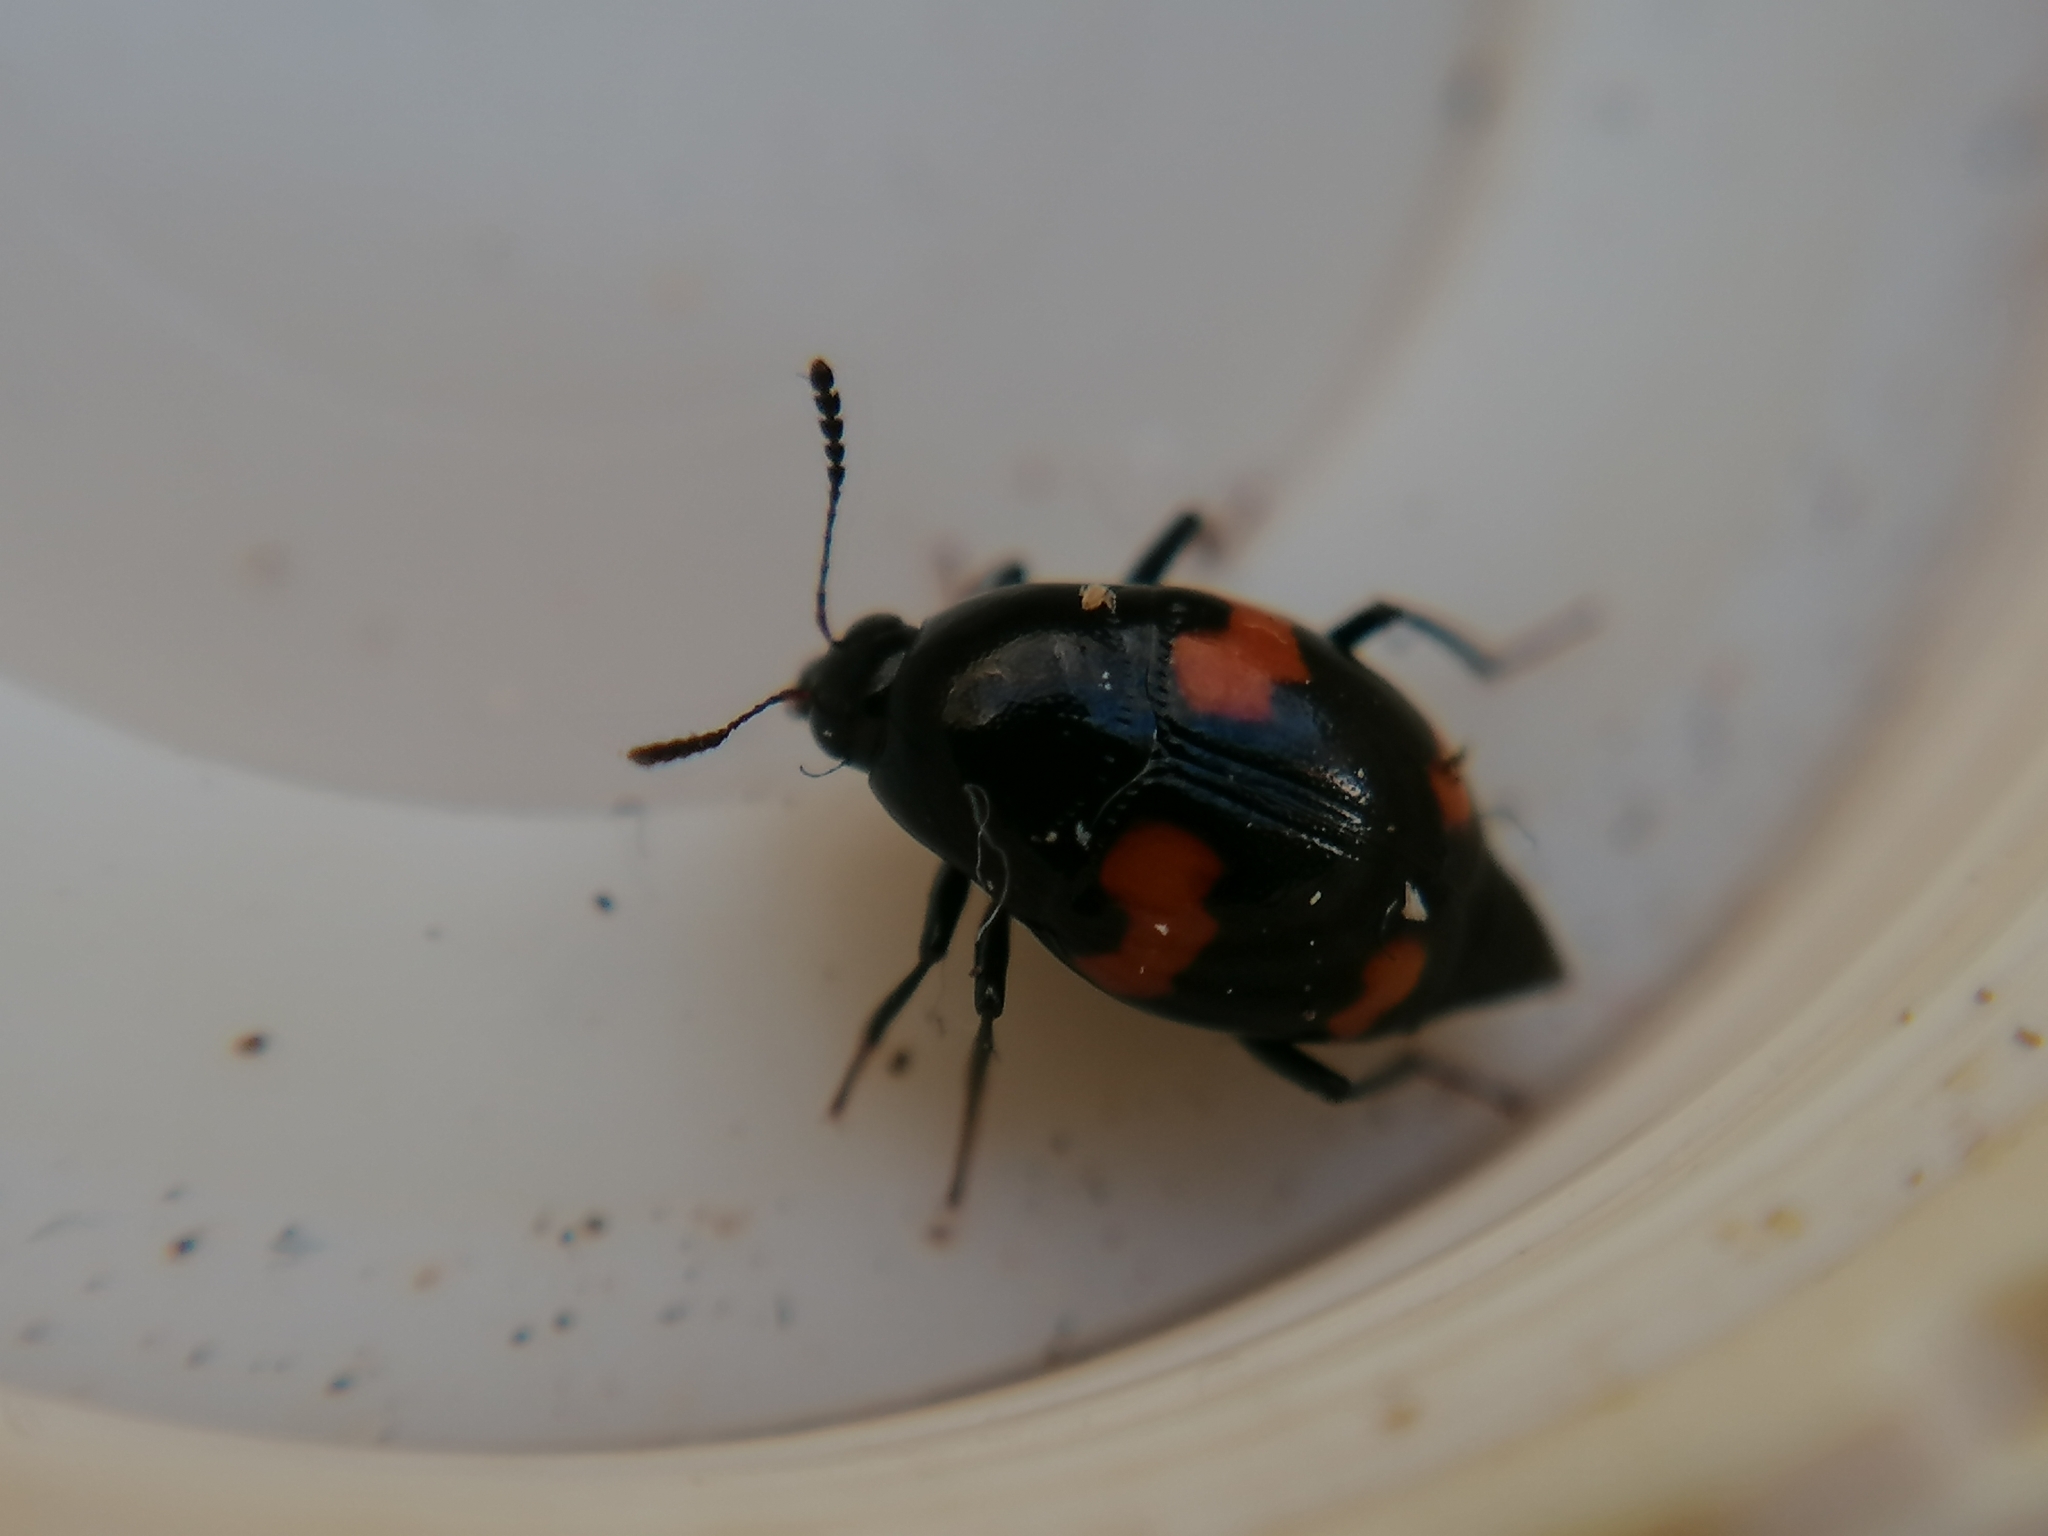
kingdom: Animalia
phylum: Arthropoda
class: Insecta
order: Coleoptera
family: Staphylinidae
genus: Scaphidium
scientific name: Scaphidium quadrimaculatum
